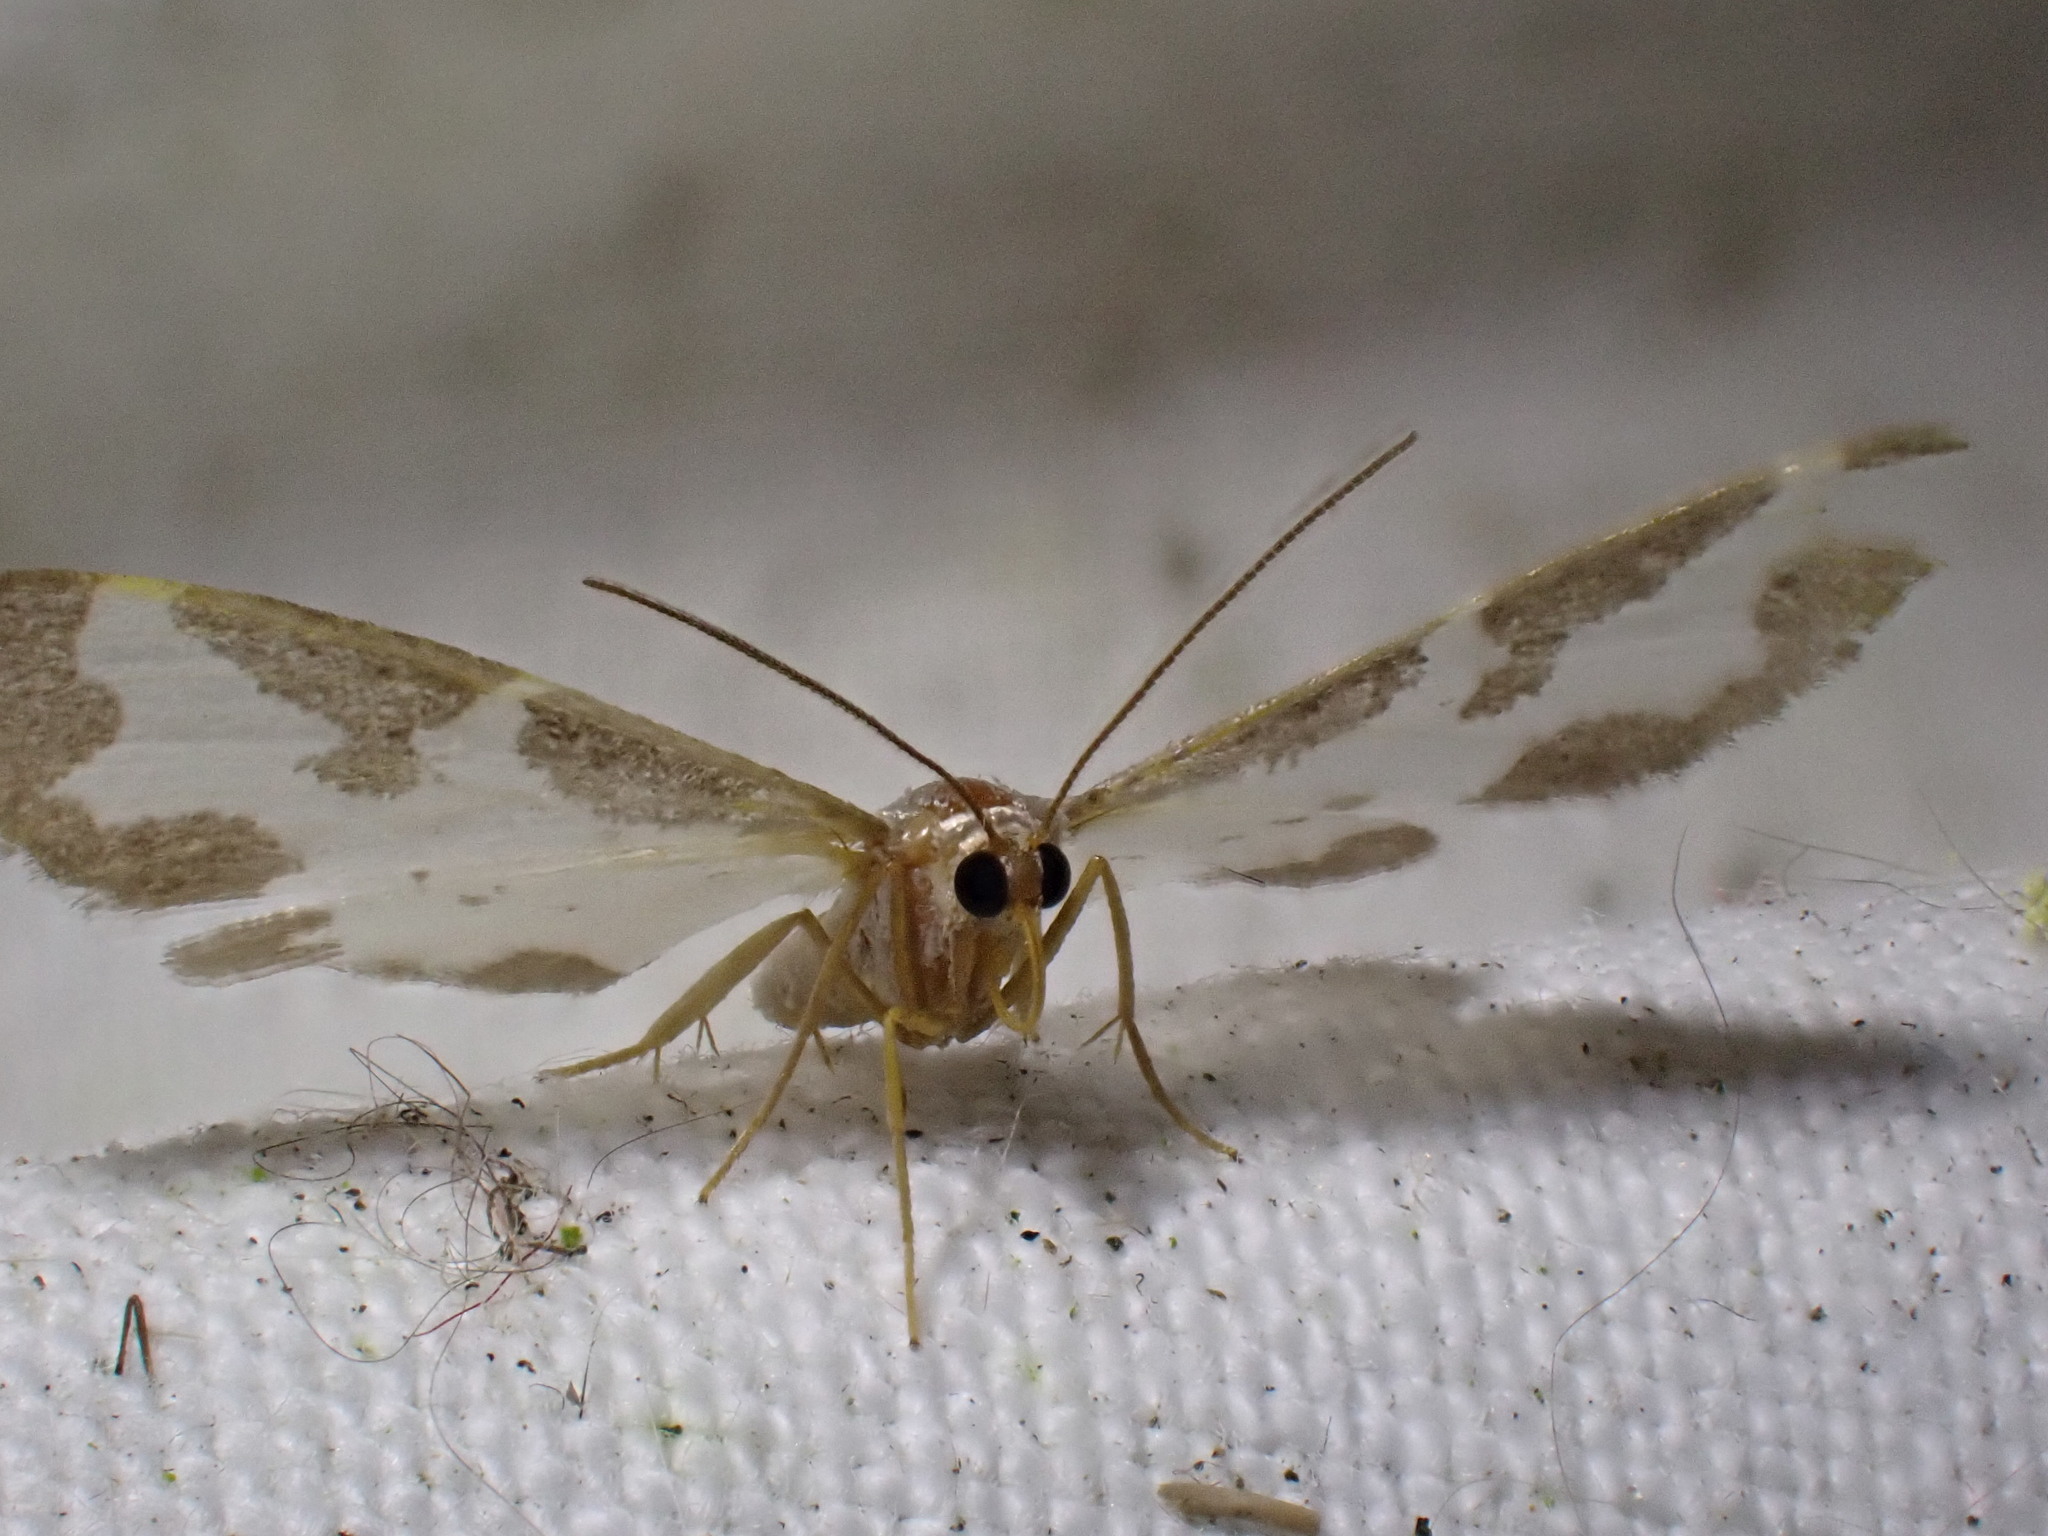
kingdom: Animalia
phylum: Arthropoda
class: Insecta
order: Lepidoptera
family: Geometridae
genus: Lomaspilis
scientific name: Lomaspilis marginata
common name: Clouded border
